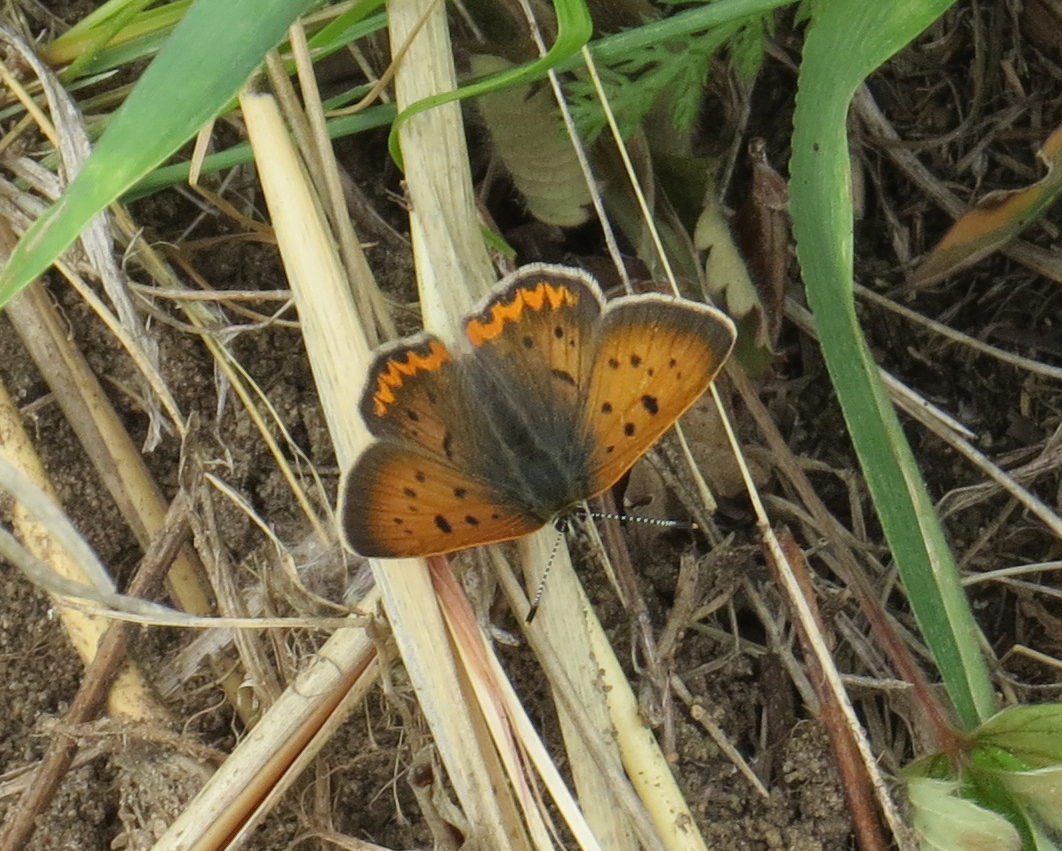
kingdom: Animalia
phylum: Arthropoda
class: Insecta
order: Lepidoptera
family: Lycaenidae
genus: Tharsalea
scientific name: Tharsalea helloides
